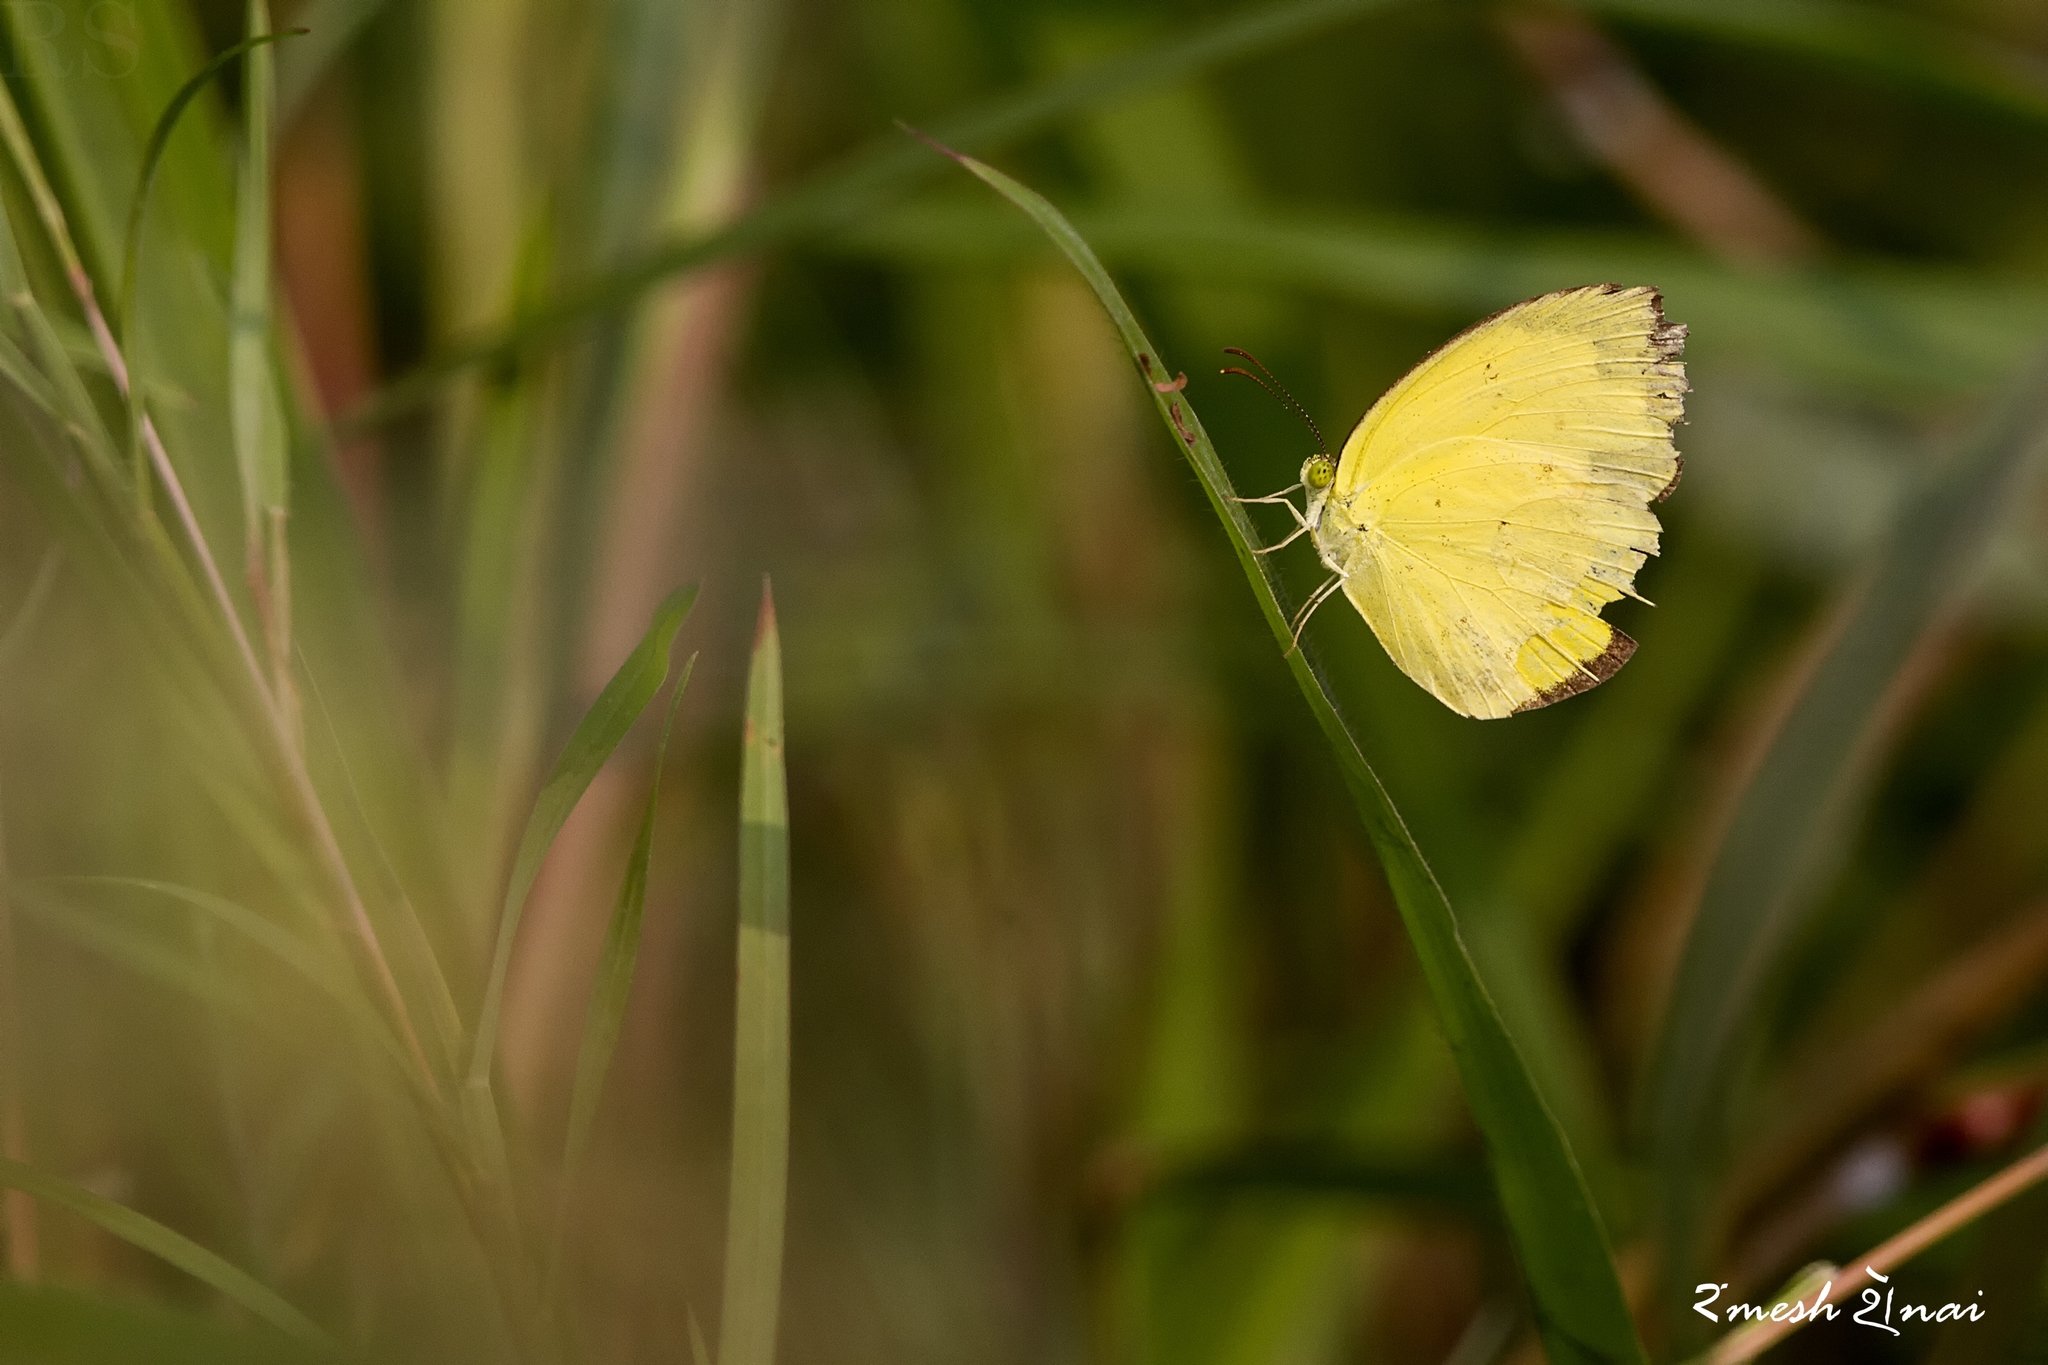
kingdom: Animalia
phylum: Arthropoda
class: Insecta
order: Lepidoptera
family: Pieridae
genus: Eurema
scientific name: Eurema hecabe
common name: Pale grass yellow
